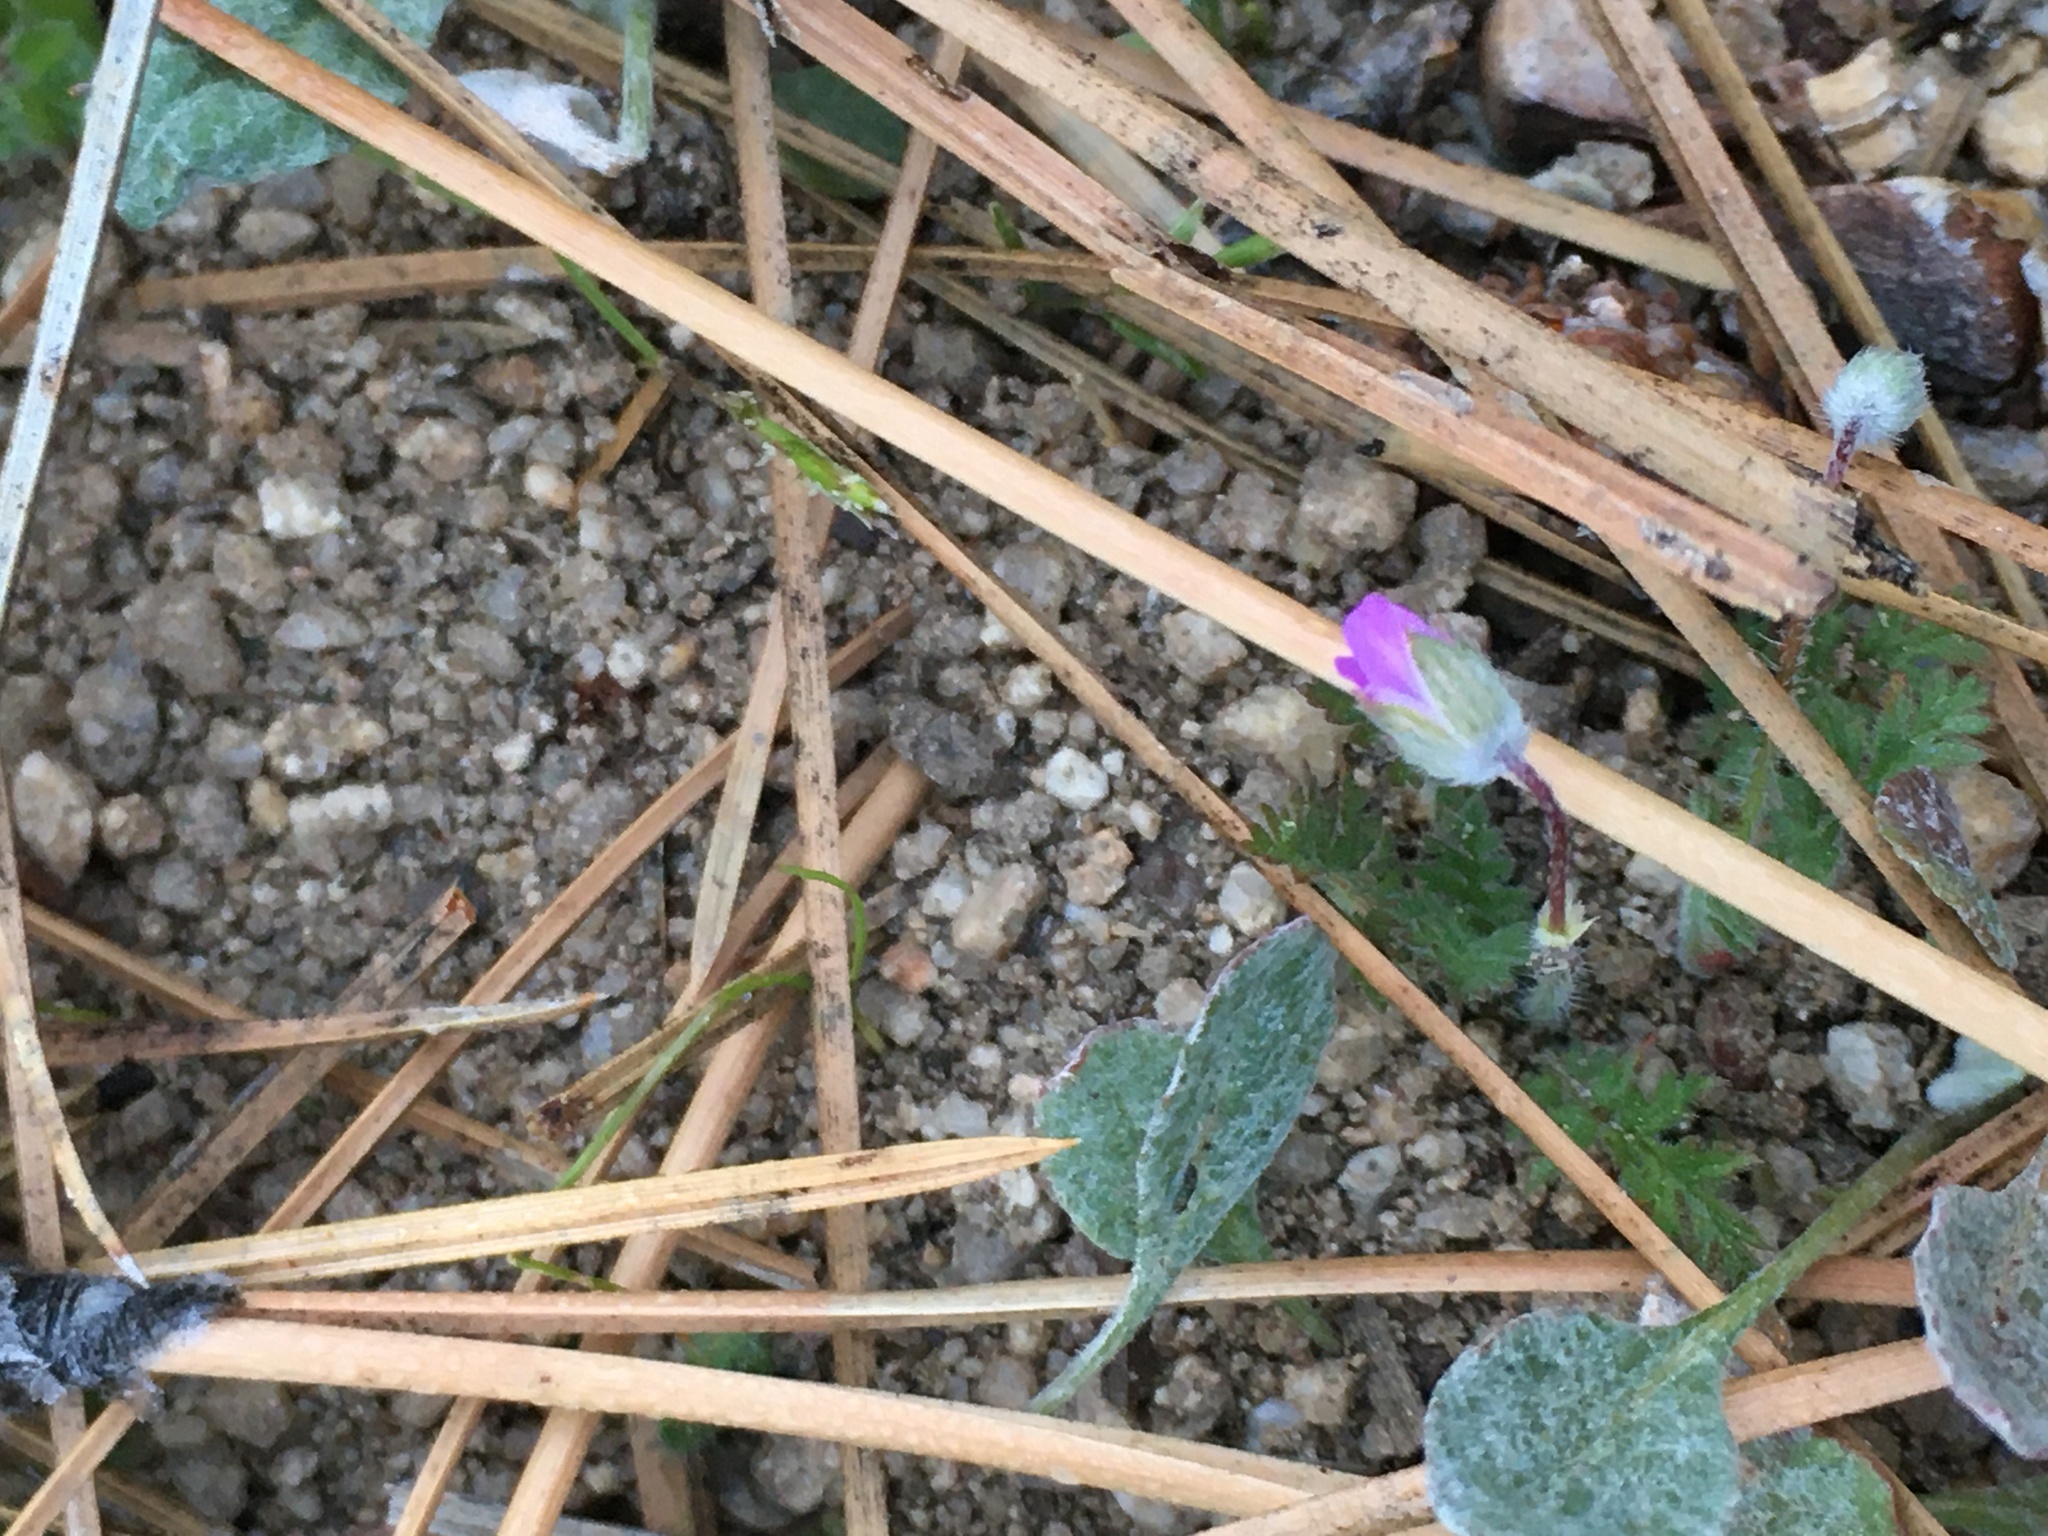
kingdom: Plantae
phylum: Tracheophyta
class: Magnoliopsida
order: Geraniales
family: Geraniaceae
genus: Erodium
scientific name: Erodium cicutarium
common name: Common stork's-bill
